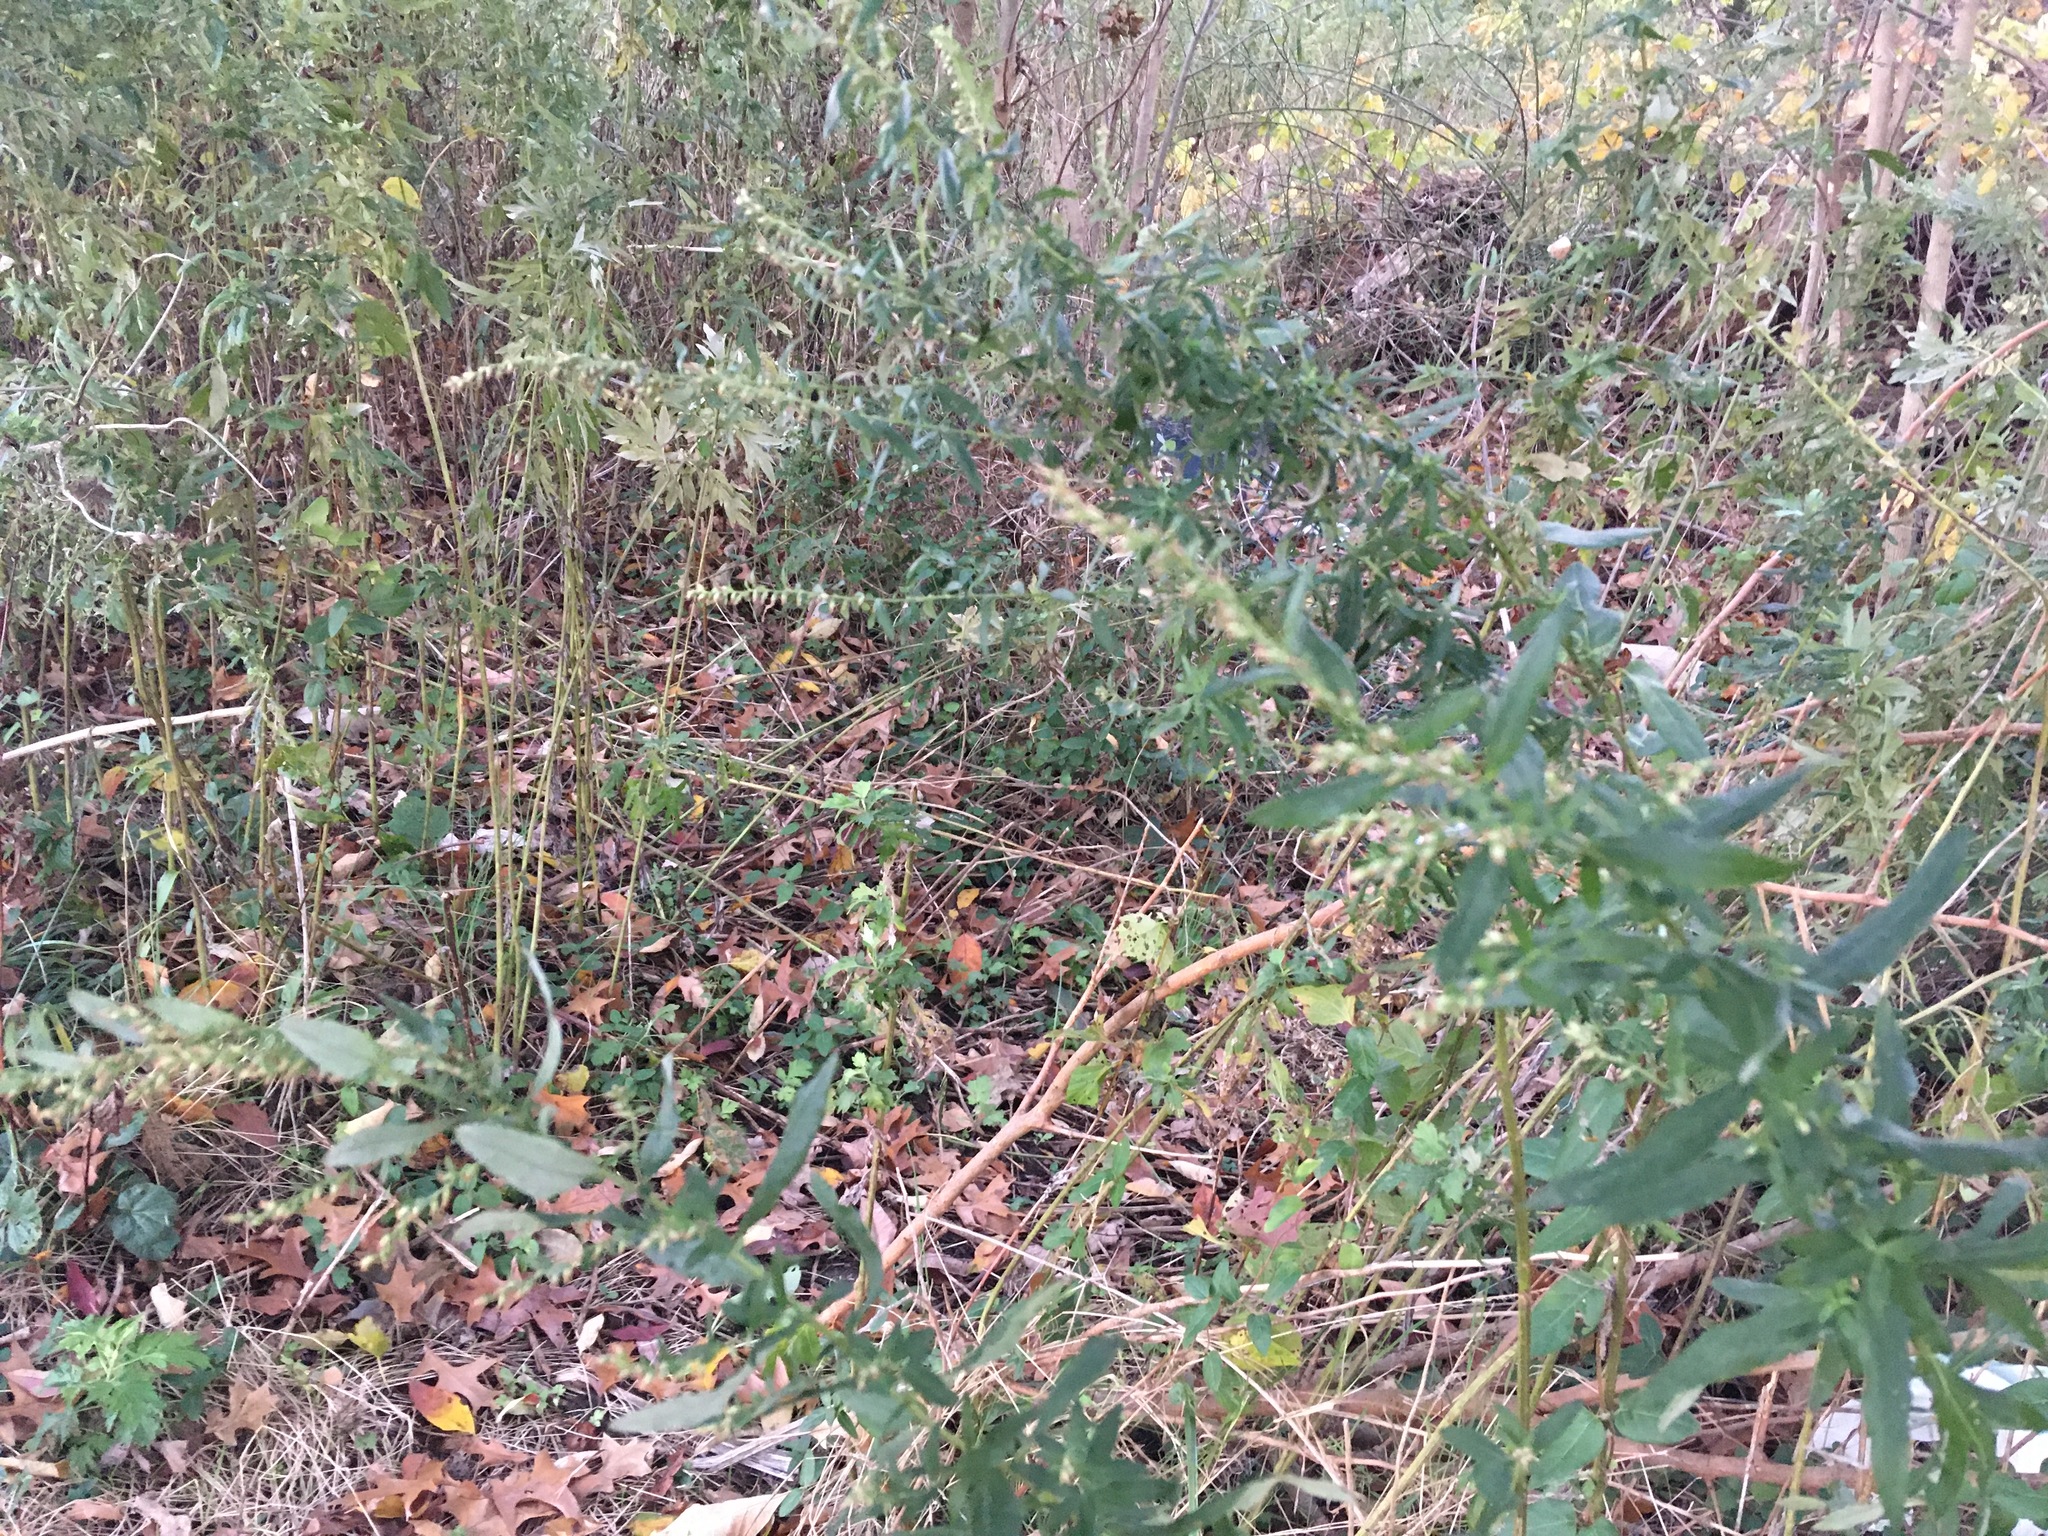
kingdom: Plantae
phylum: Tracheophyta
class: Magnoliopsida
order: Asterales
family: Asteraceae
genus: Artemisia
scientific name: Artemisia vulgaris
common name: Mugwort
